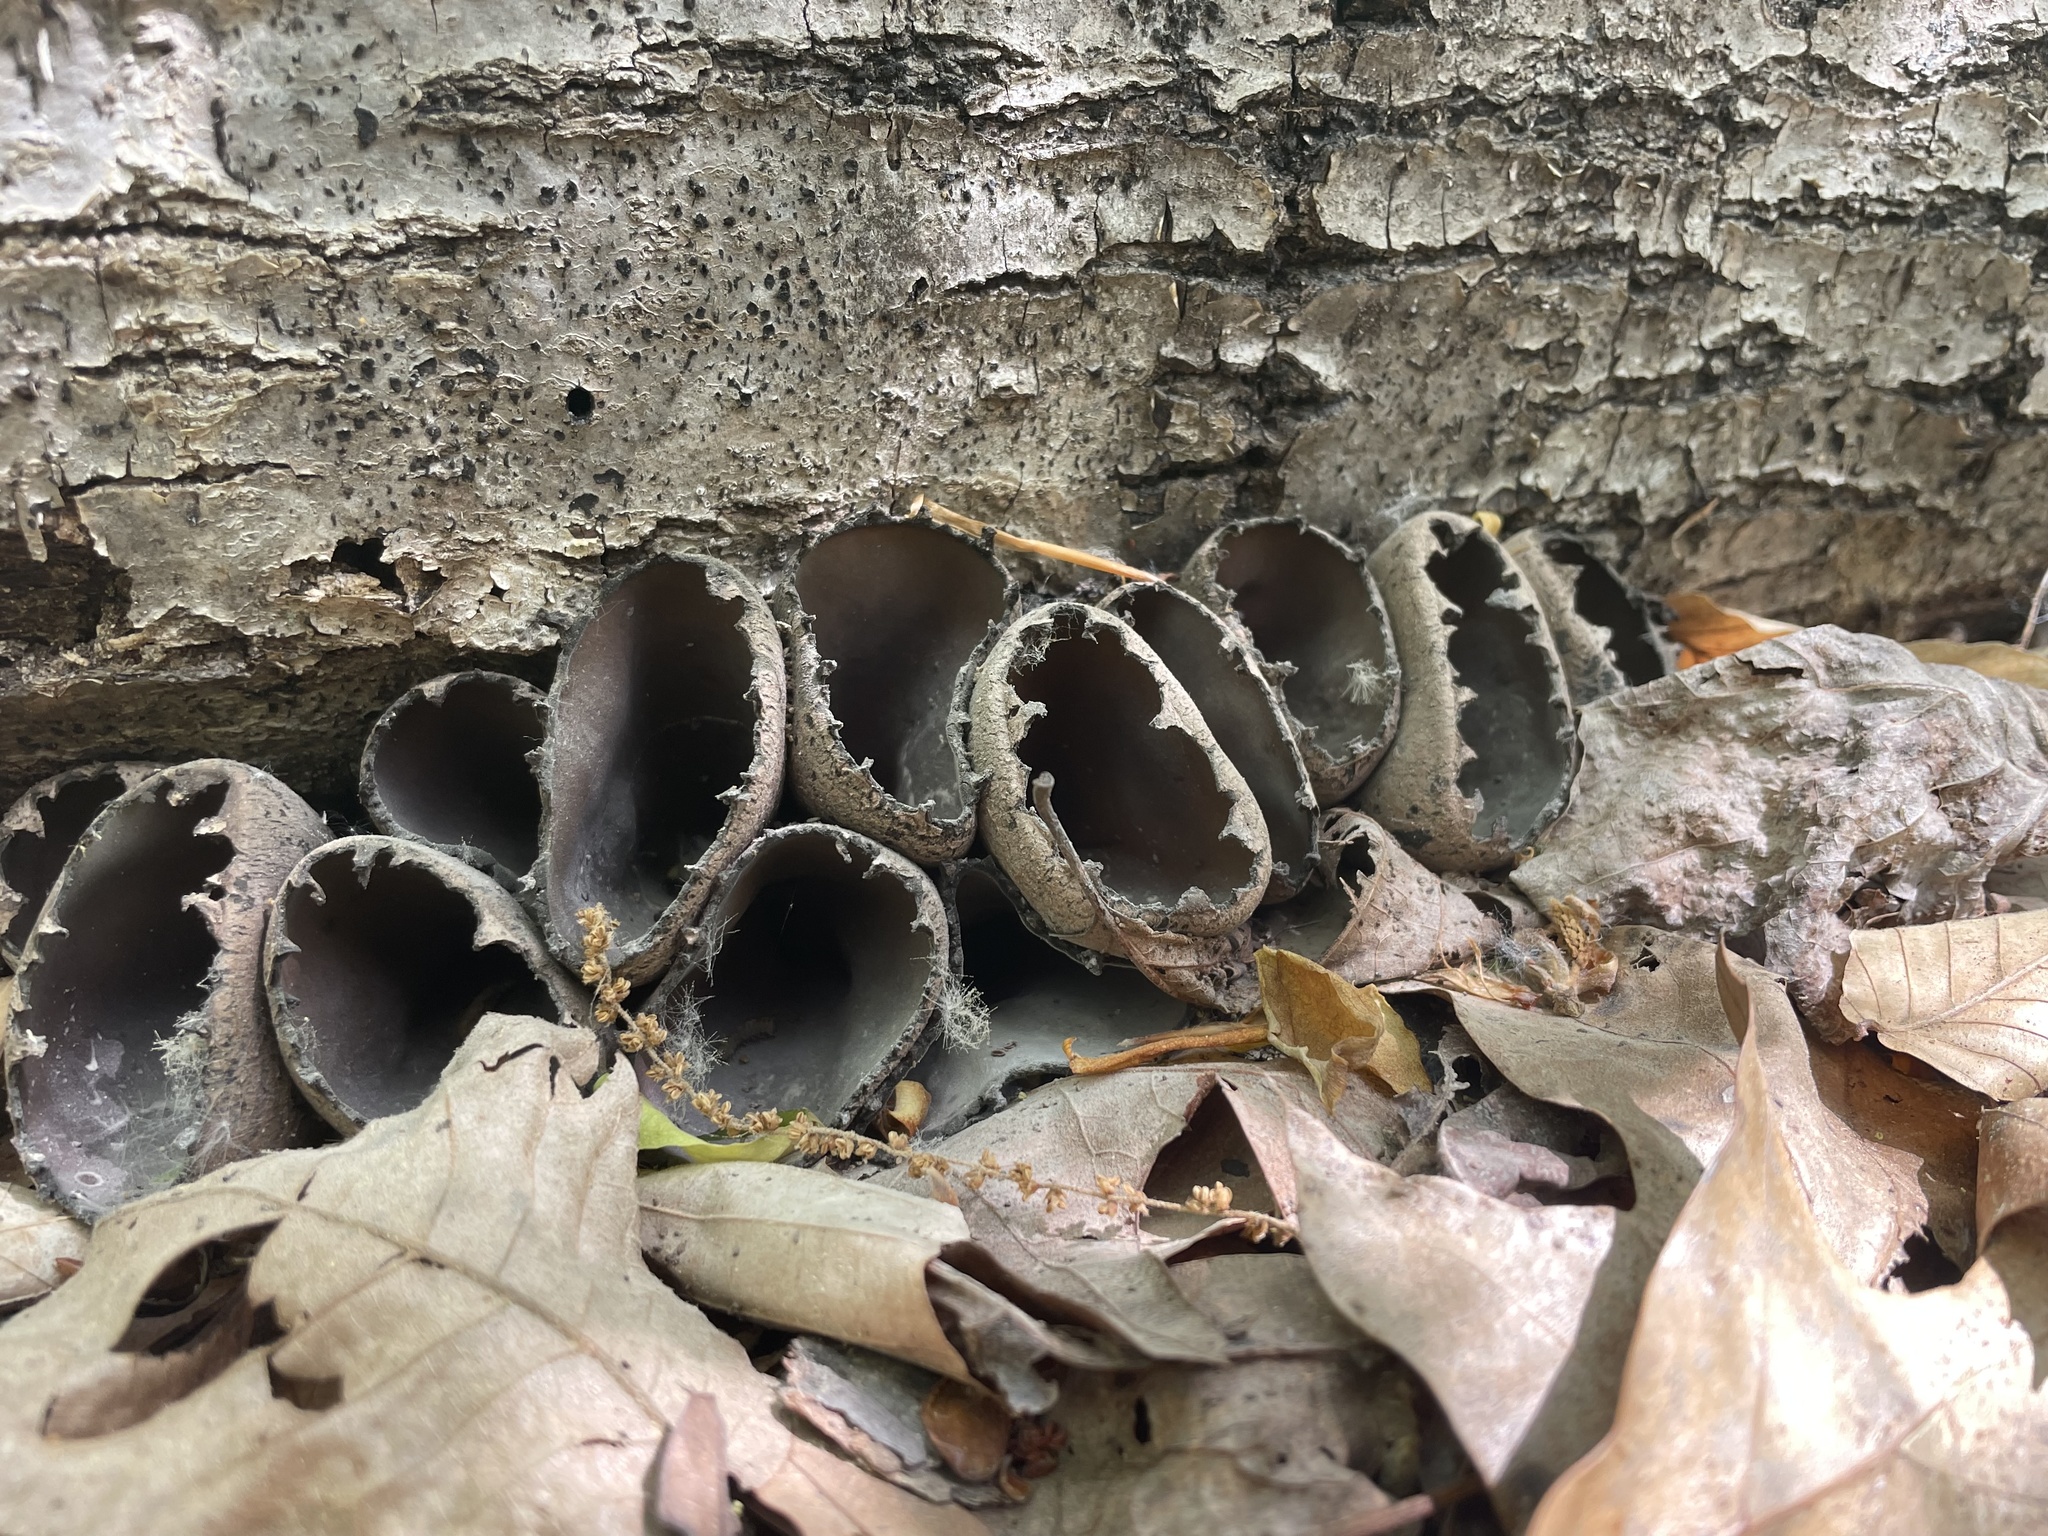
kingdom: Fungi
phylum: Ascomycota
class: Pezizomycetes
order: Pezizales
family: Sarcosomataceae
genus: Urnula
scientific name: Urnula craterium
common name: Devil's urn
